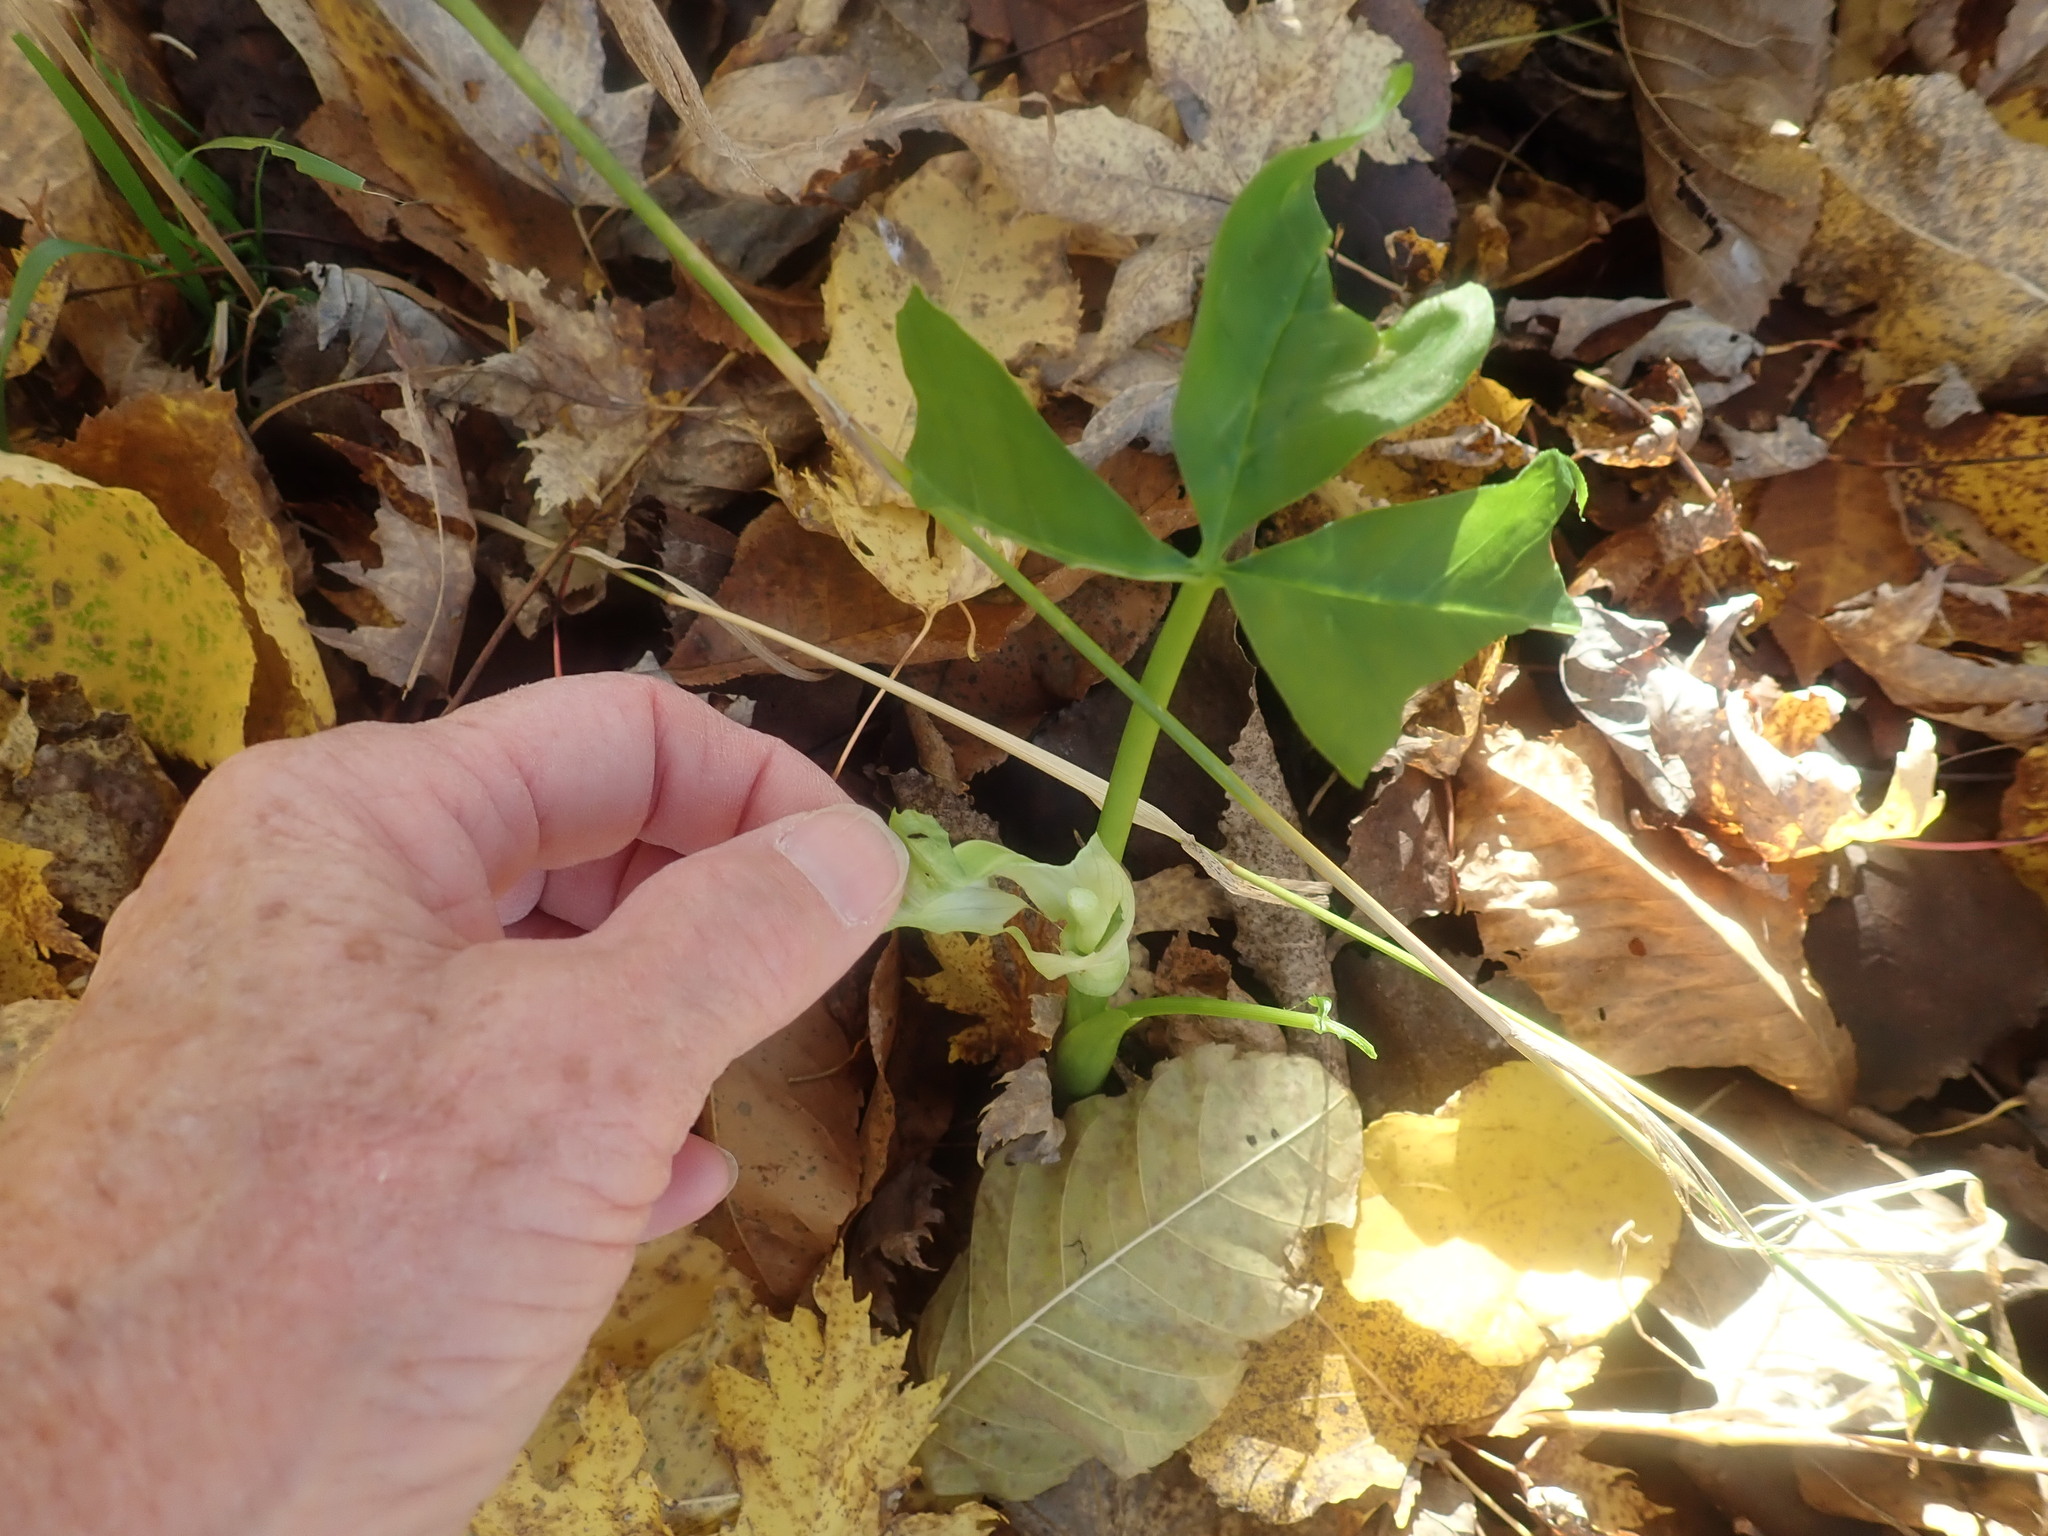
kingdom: Plantae
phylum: Tracheophyta
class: Liliopsida
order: Alismatales
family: Araceae
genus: Arisaema
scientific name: Arisaema triphyllum
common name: Jack-in-the-pulpit
